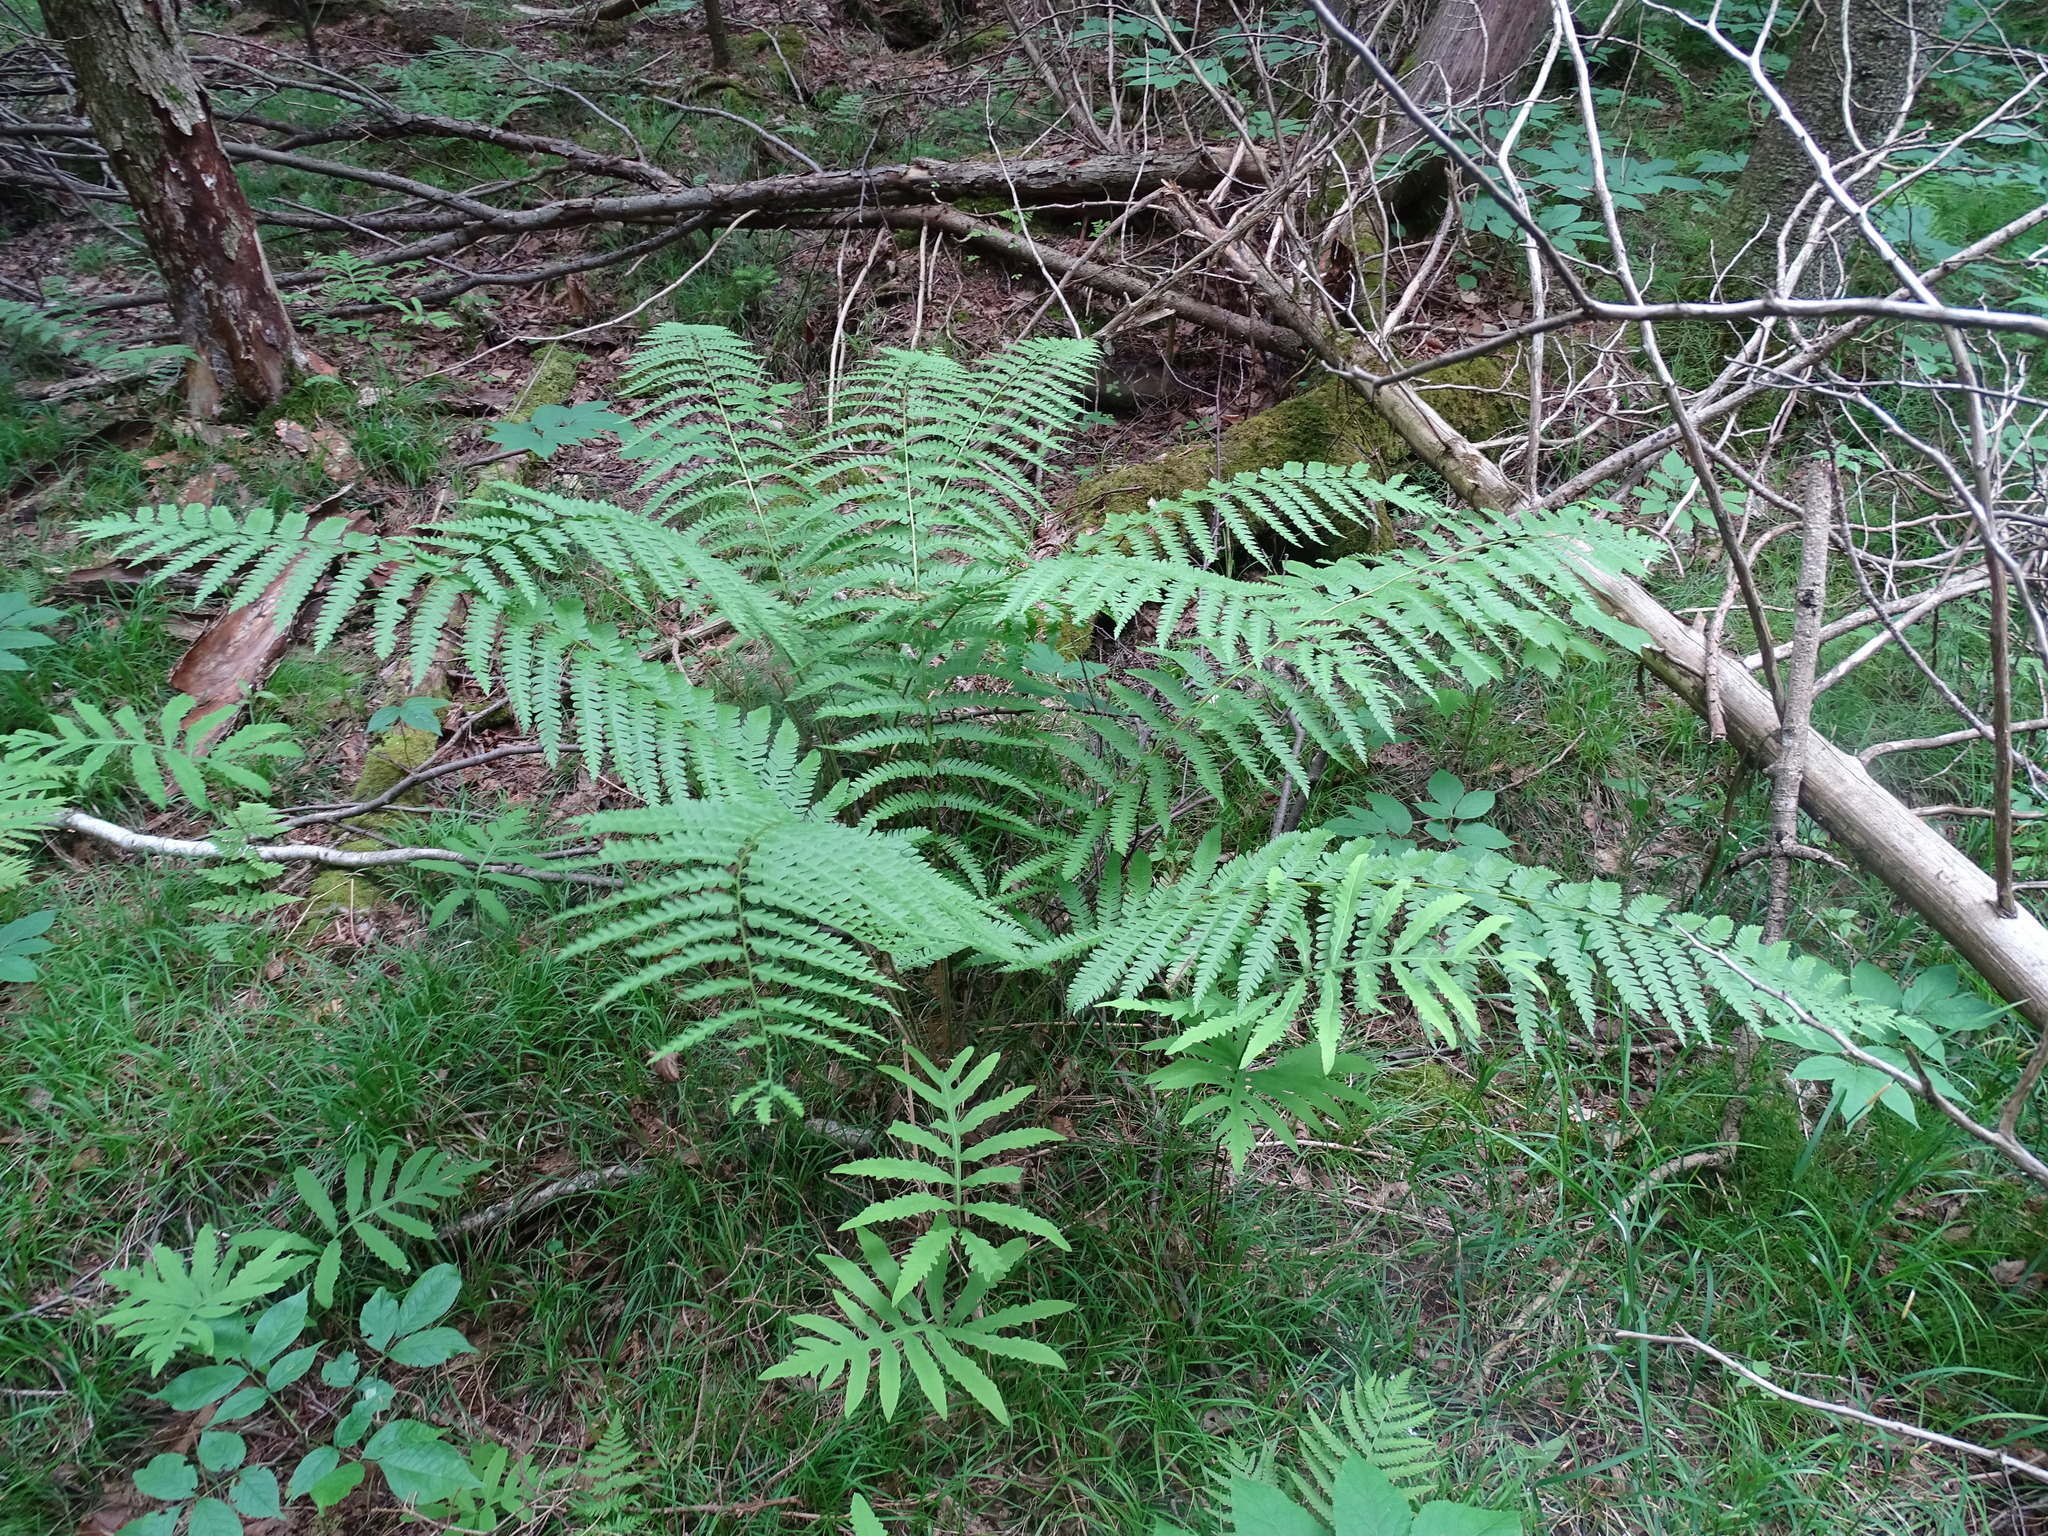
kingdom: Plantae
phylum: Tracheophyta
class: Polypodiopsida
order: Osmundales
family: Osmundaceae
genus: Osmundastrum
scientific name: Osmundastrum cinnamomeum
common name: Cinnamon fern
